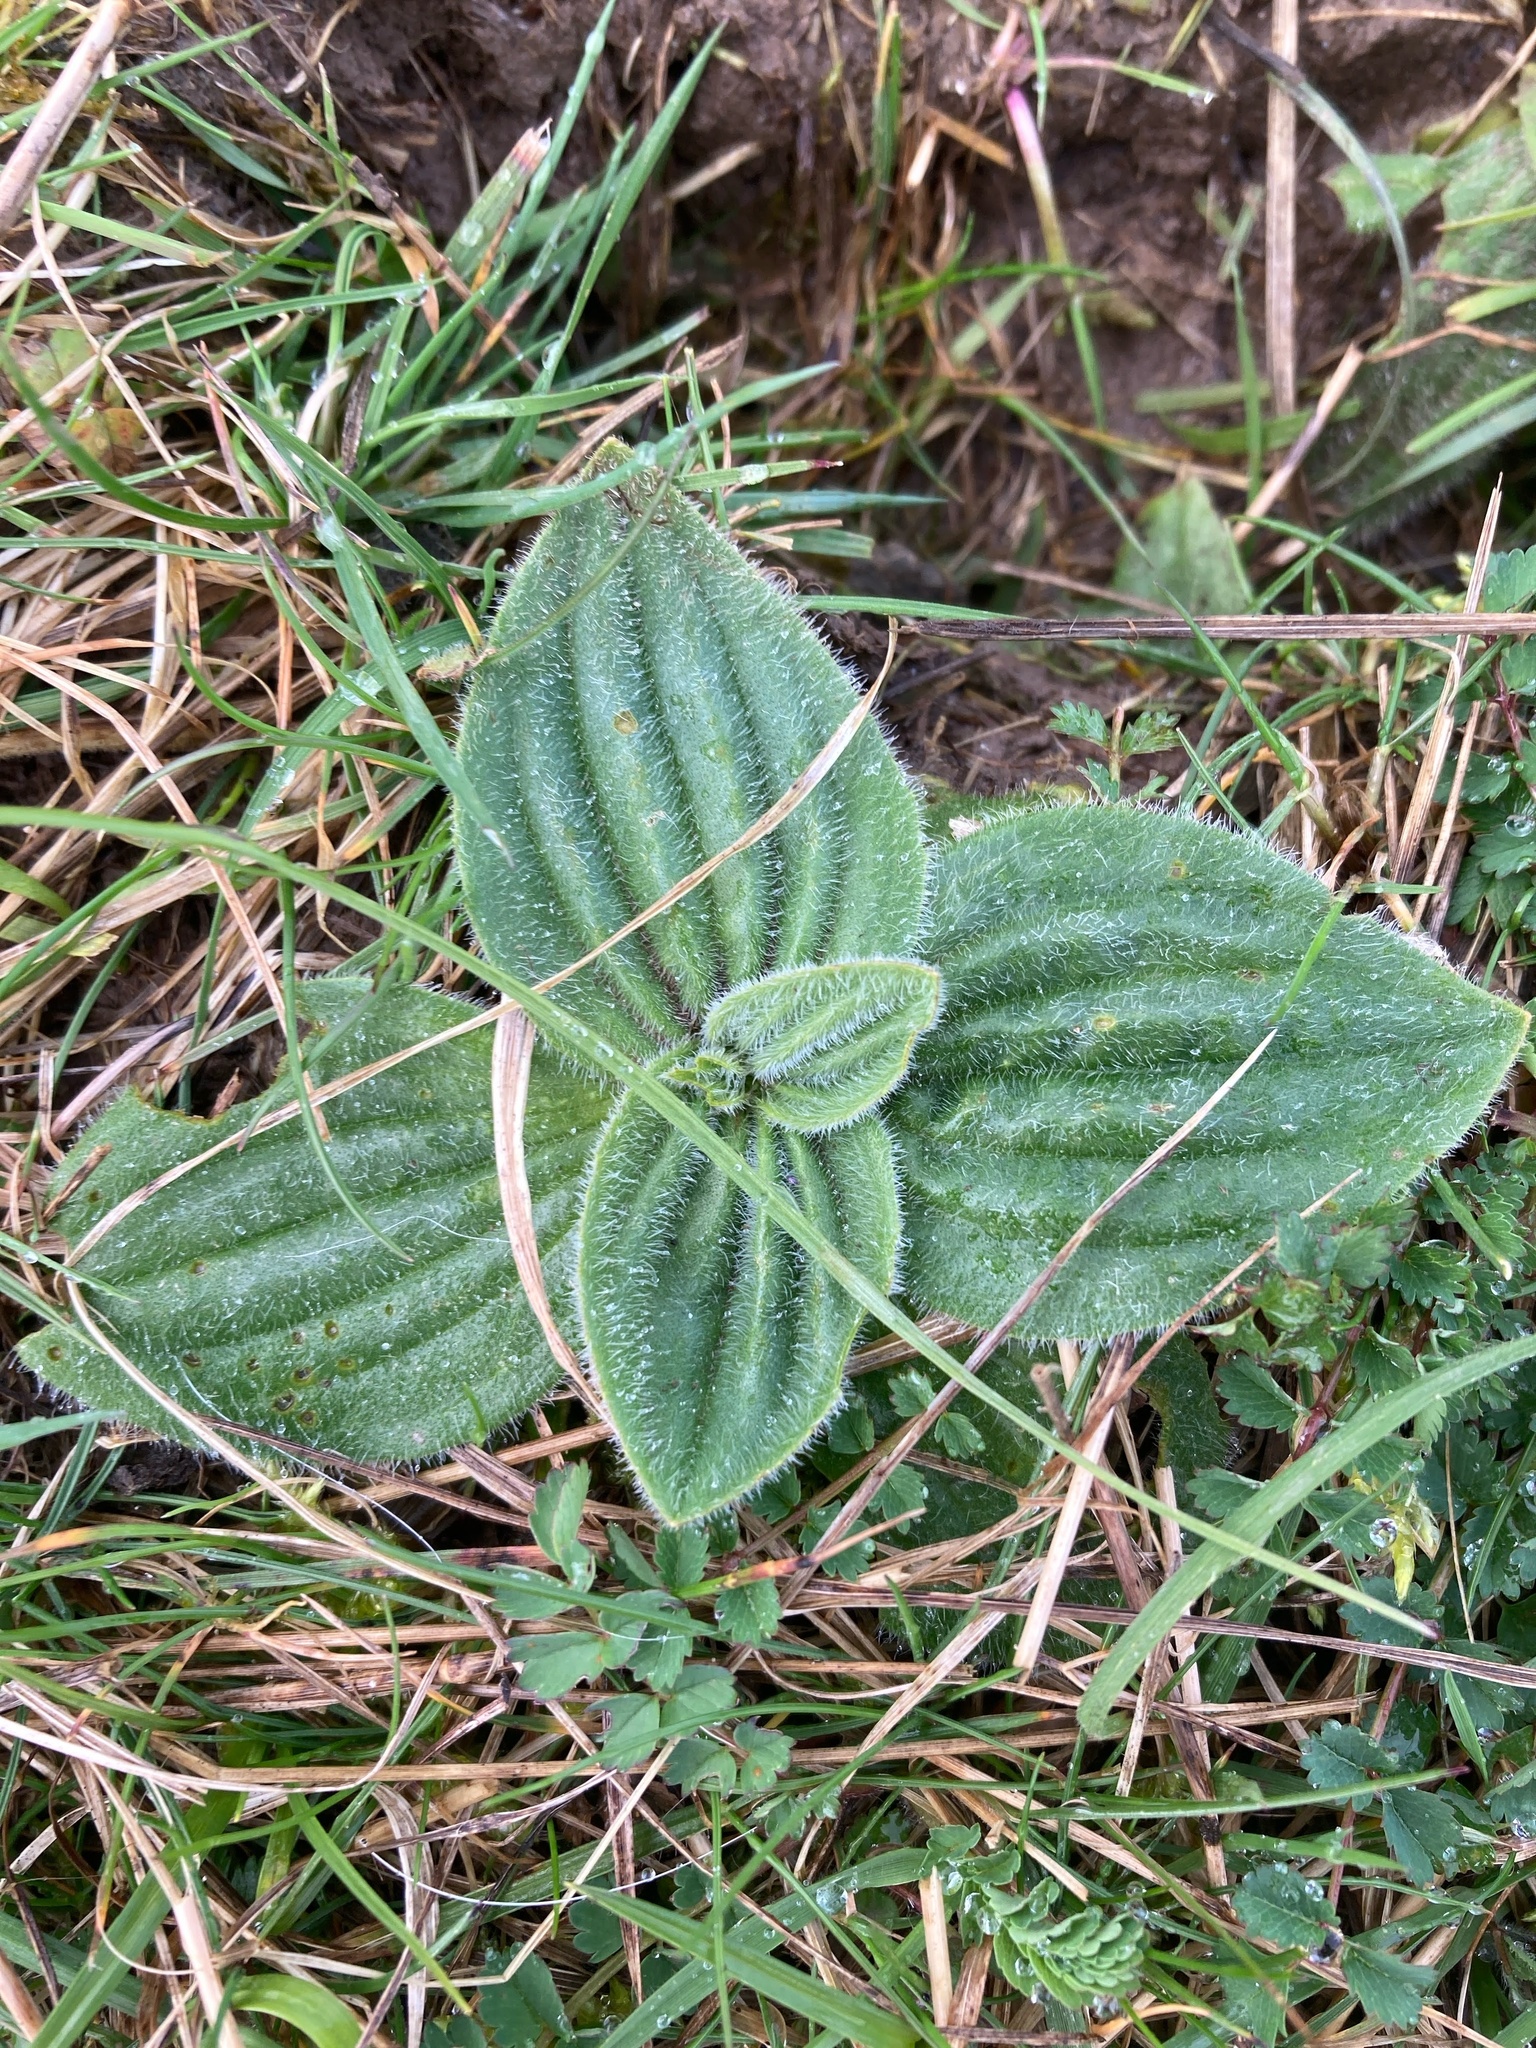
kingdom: Plantae
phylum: Tracheophyta
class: Magnoliopsida
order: Lamiales
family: Plantaginaceae
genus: Plantago
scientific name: Plantago media
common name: Hoary plantain
